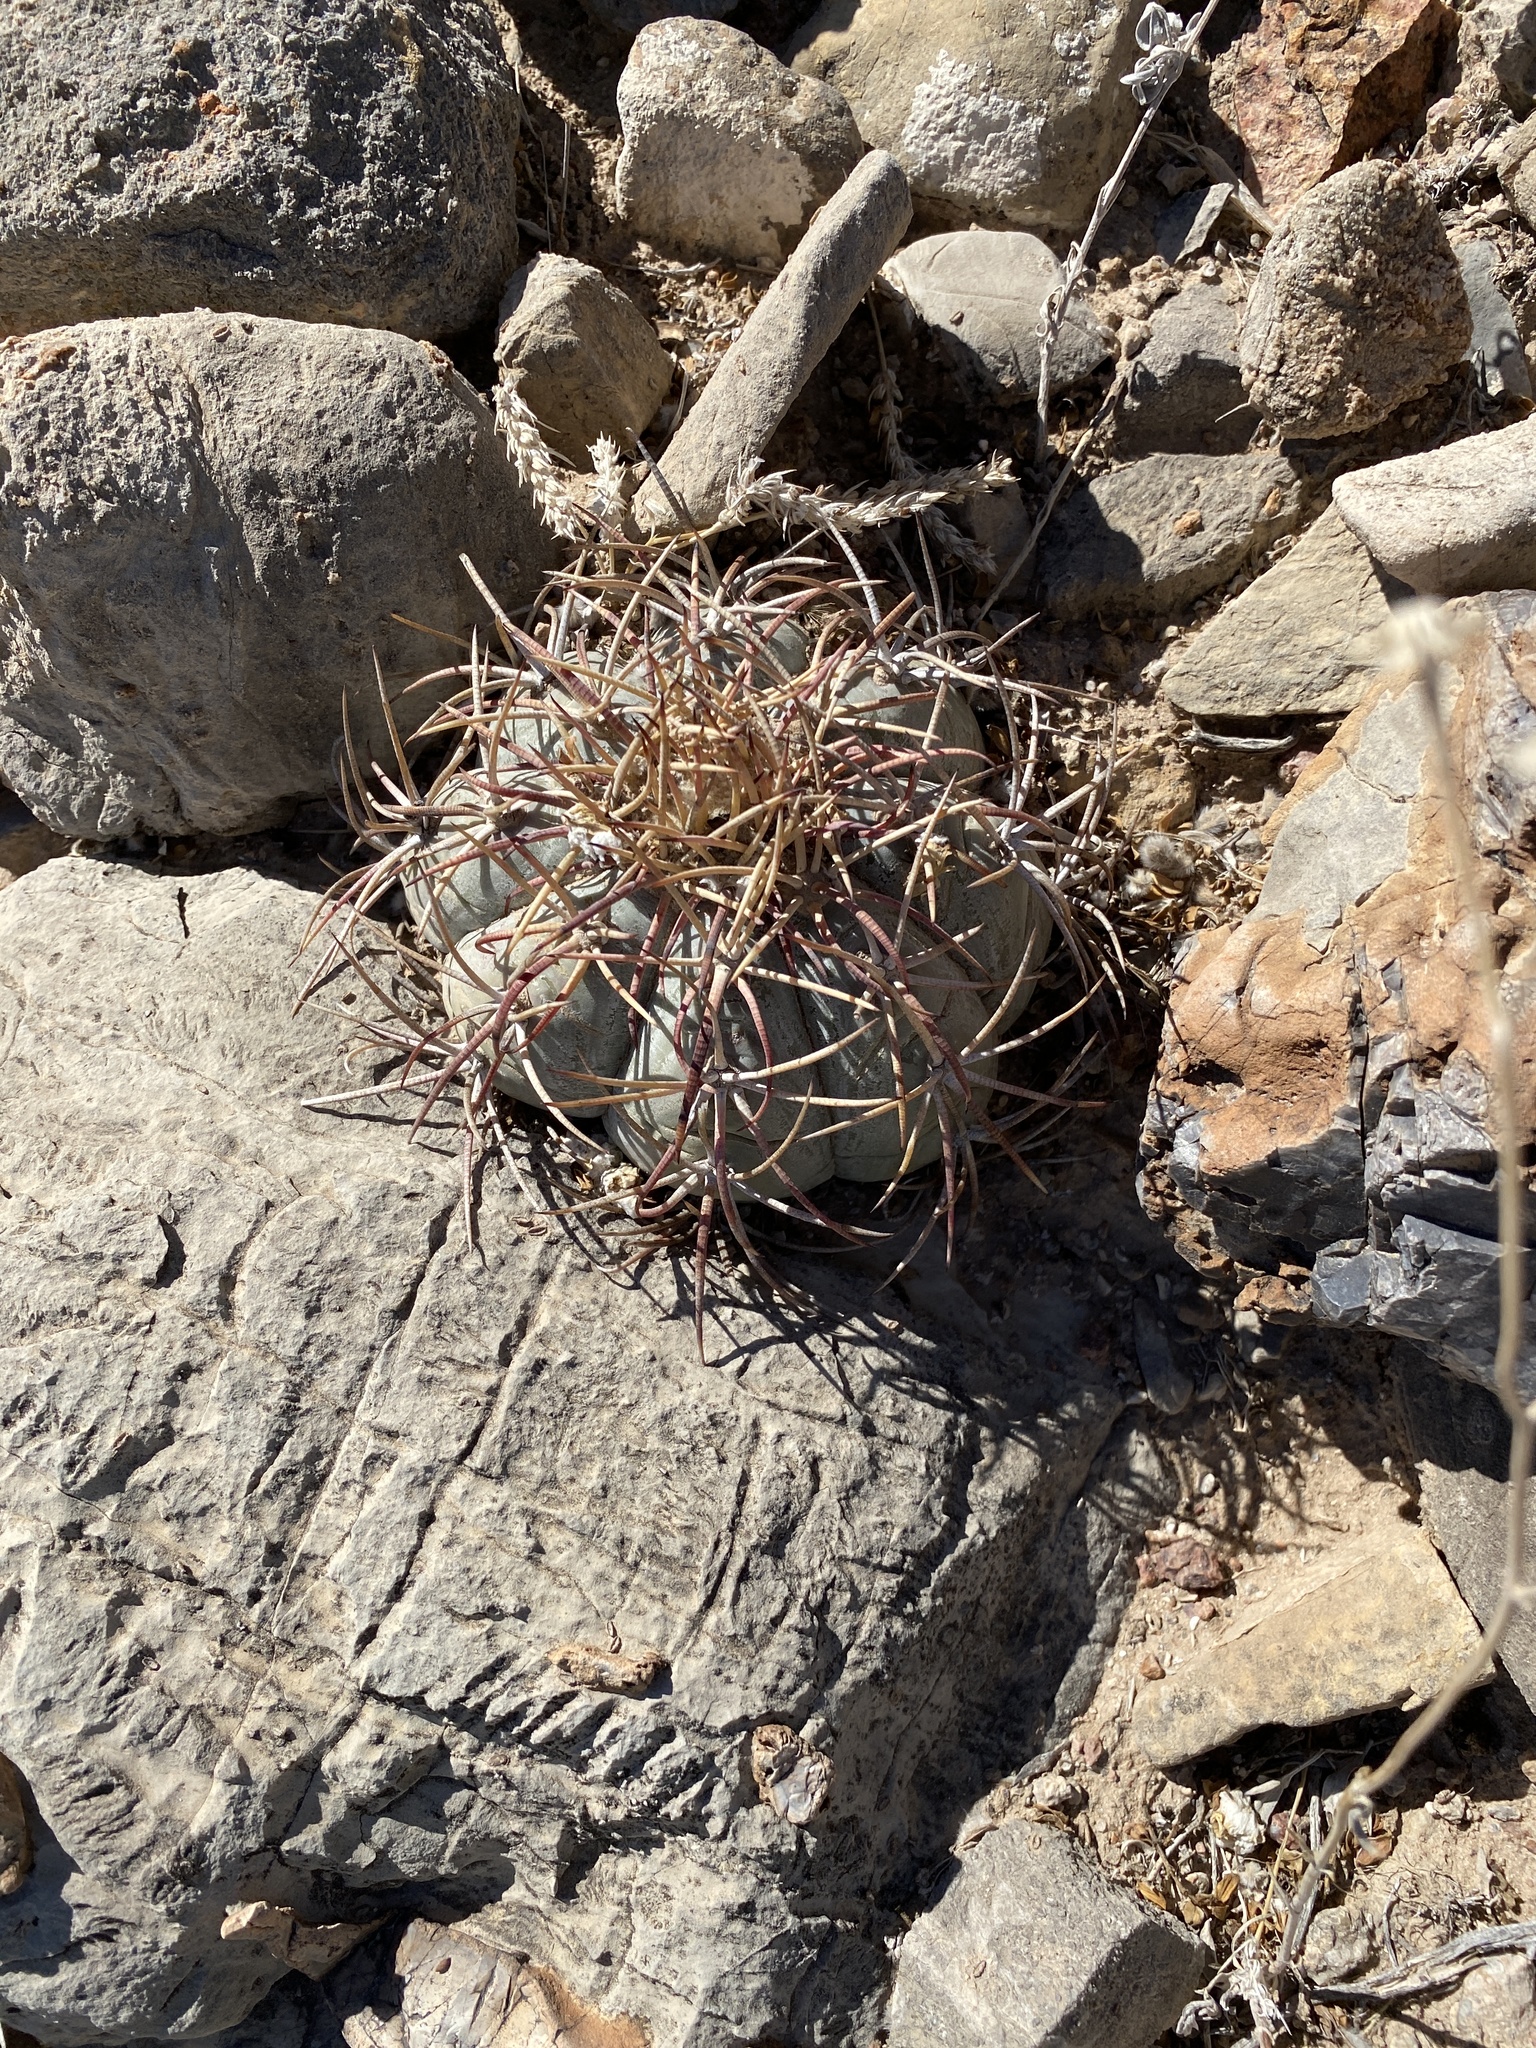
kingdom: Plantae
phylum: Tracheophyta
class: Magnoliopsida
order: Caryophyllales
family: Cactaceae
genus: Echinocactus
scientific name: Echinocactus horizonthalonius
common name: Devilshead
